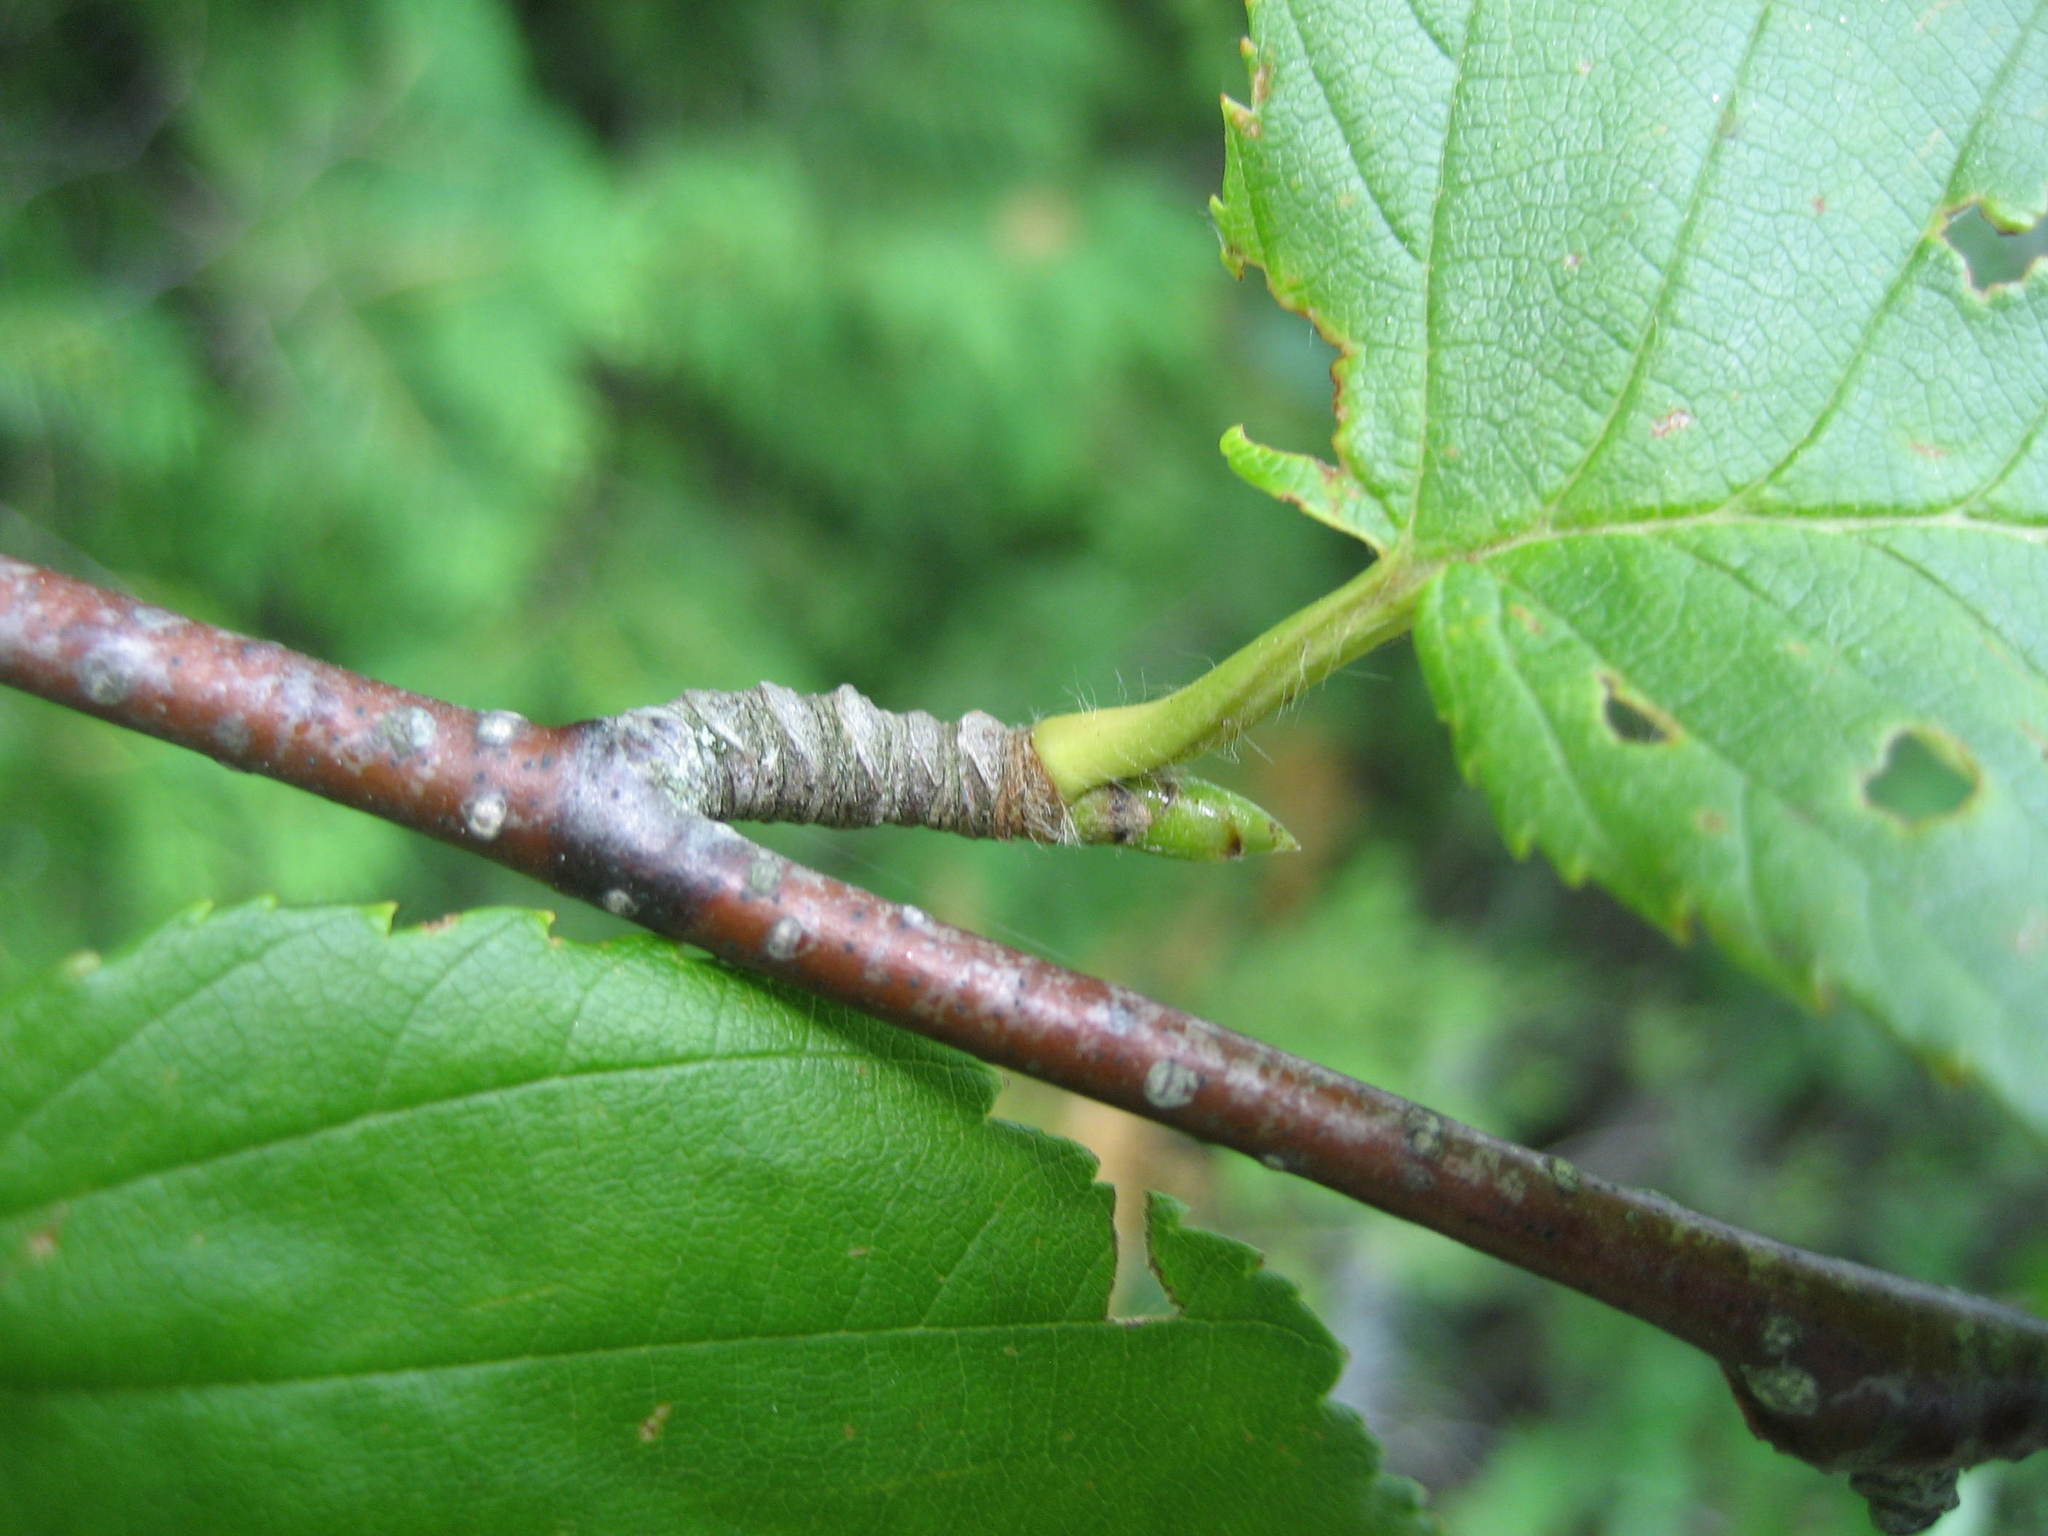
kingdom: Plantae
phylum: Tracheophyta
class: Magnoliopsida
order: Fagales
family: Betulaceae
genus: Betula
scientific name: Betula alleghaniensis
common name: Yellow birch
